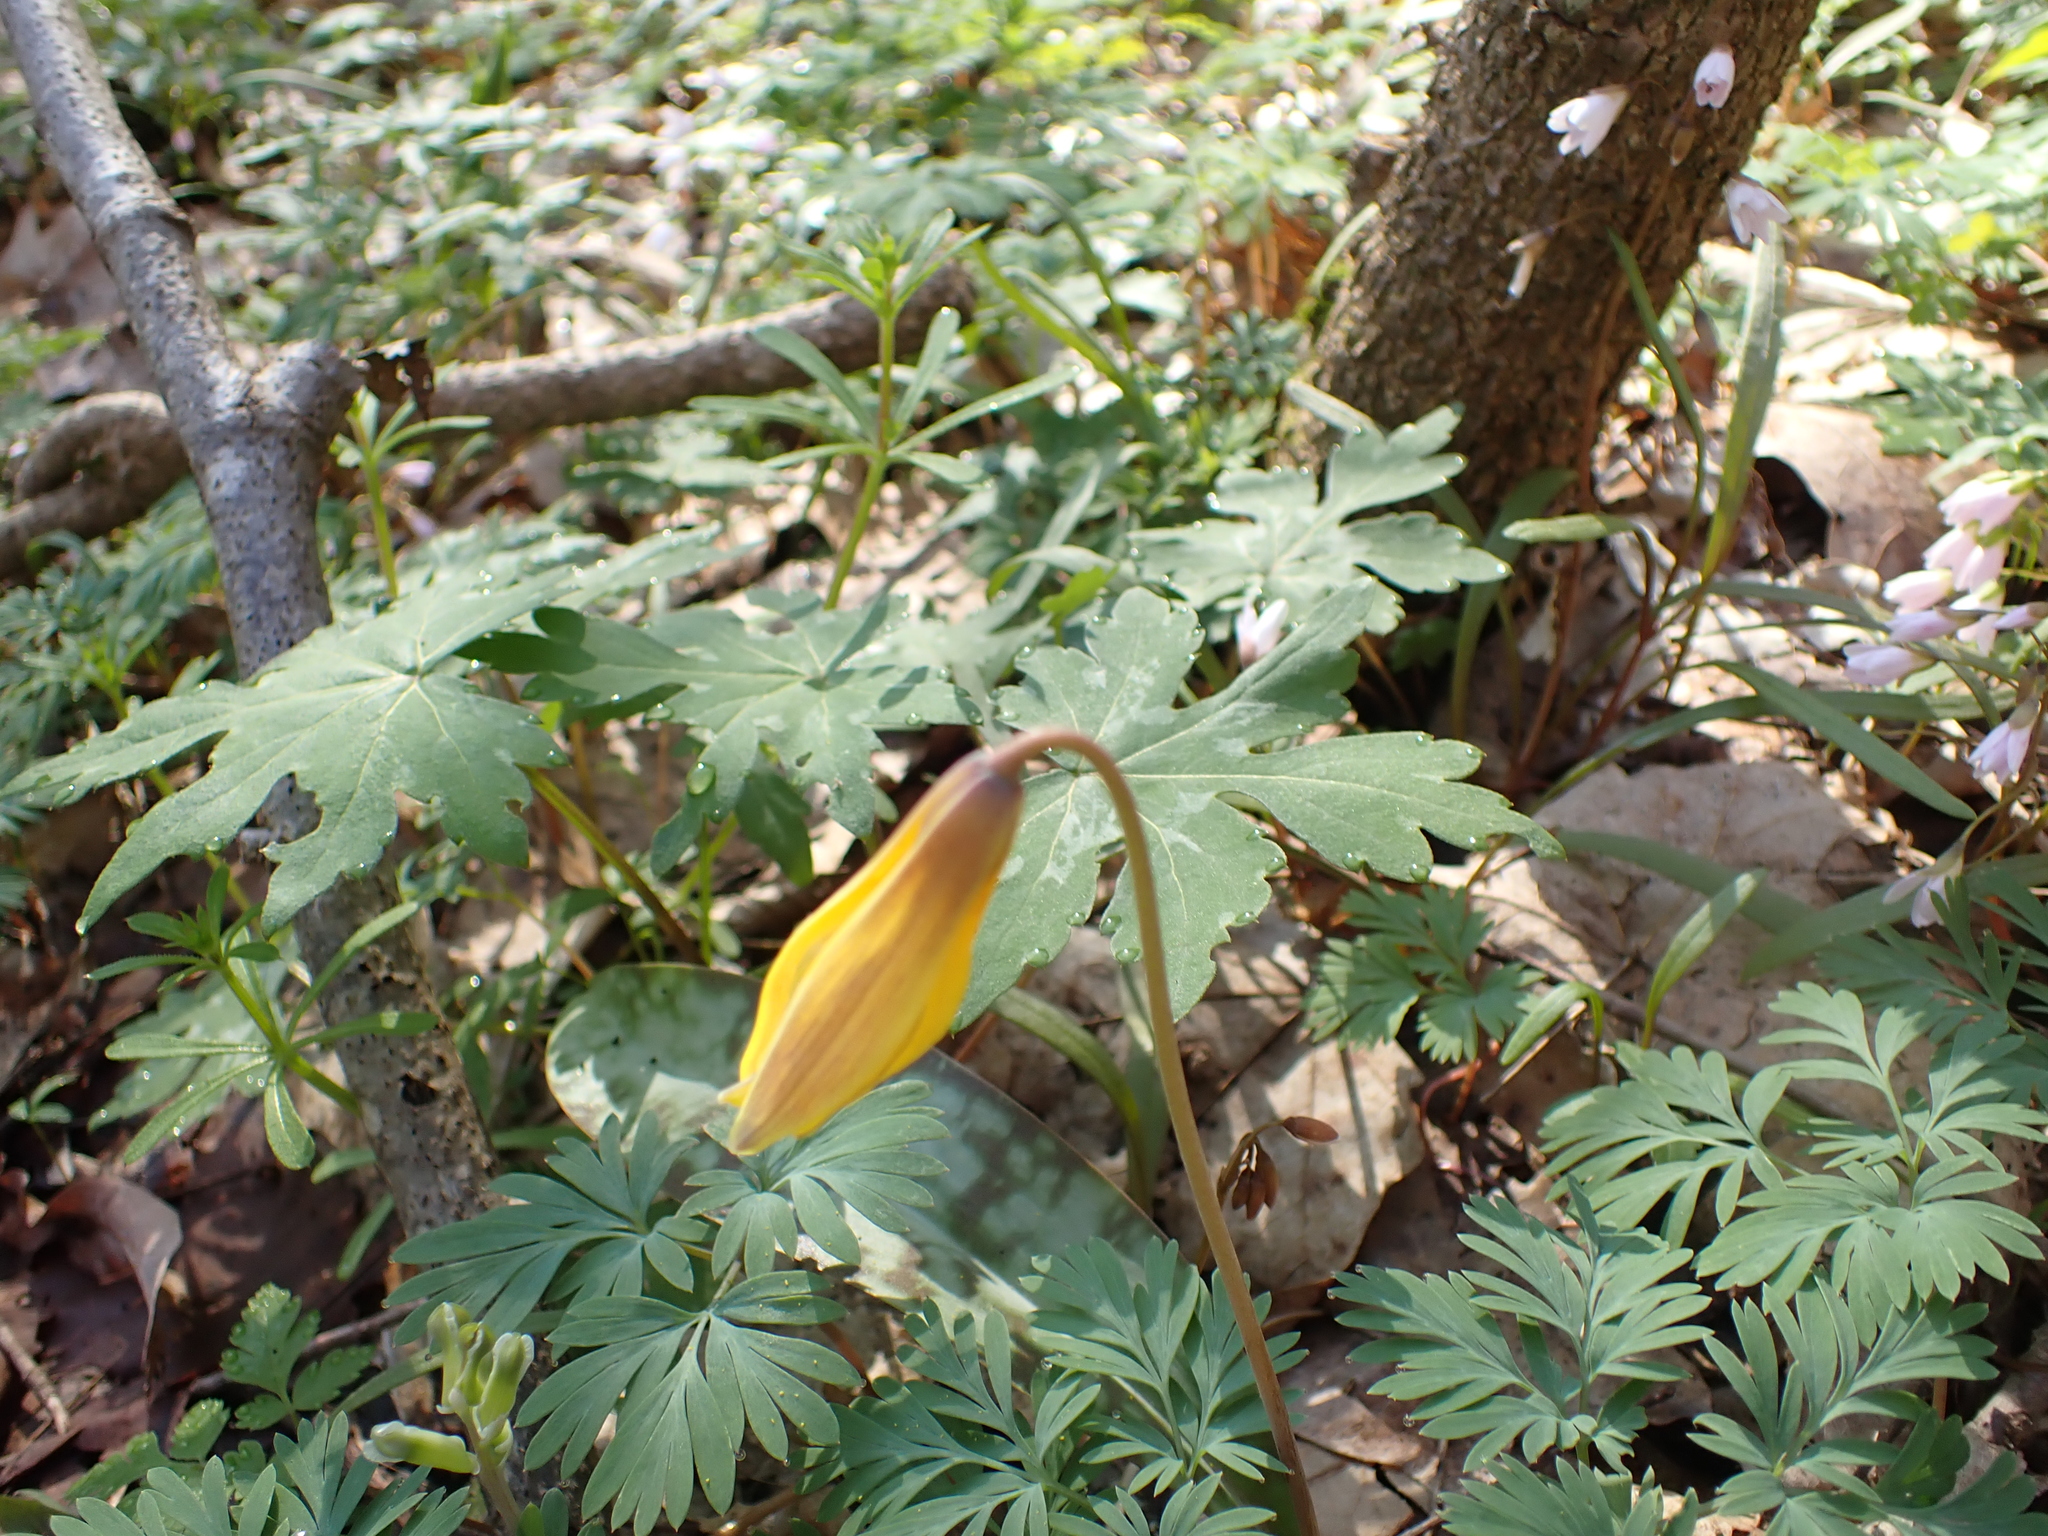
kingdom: Plantae
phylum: Tracheophyta
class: Liliopsida
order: Liliales
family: Liliaceae
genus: Erythronium
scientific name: Erythronium americanum
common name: Yellow adder's-tongue
